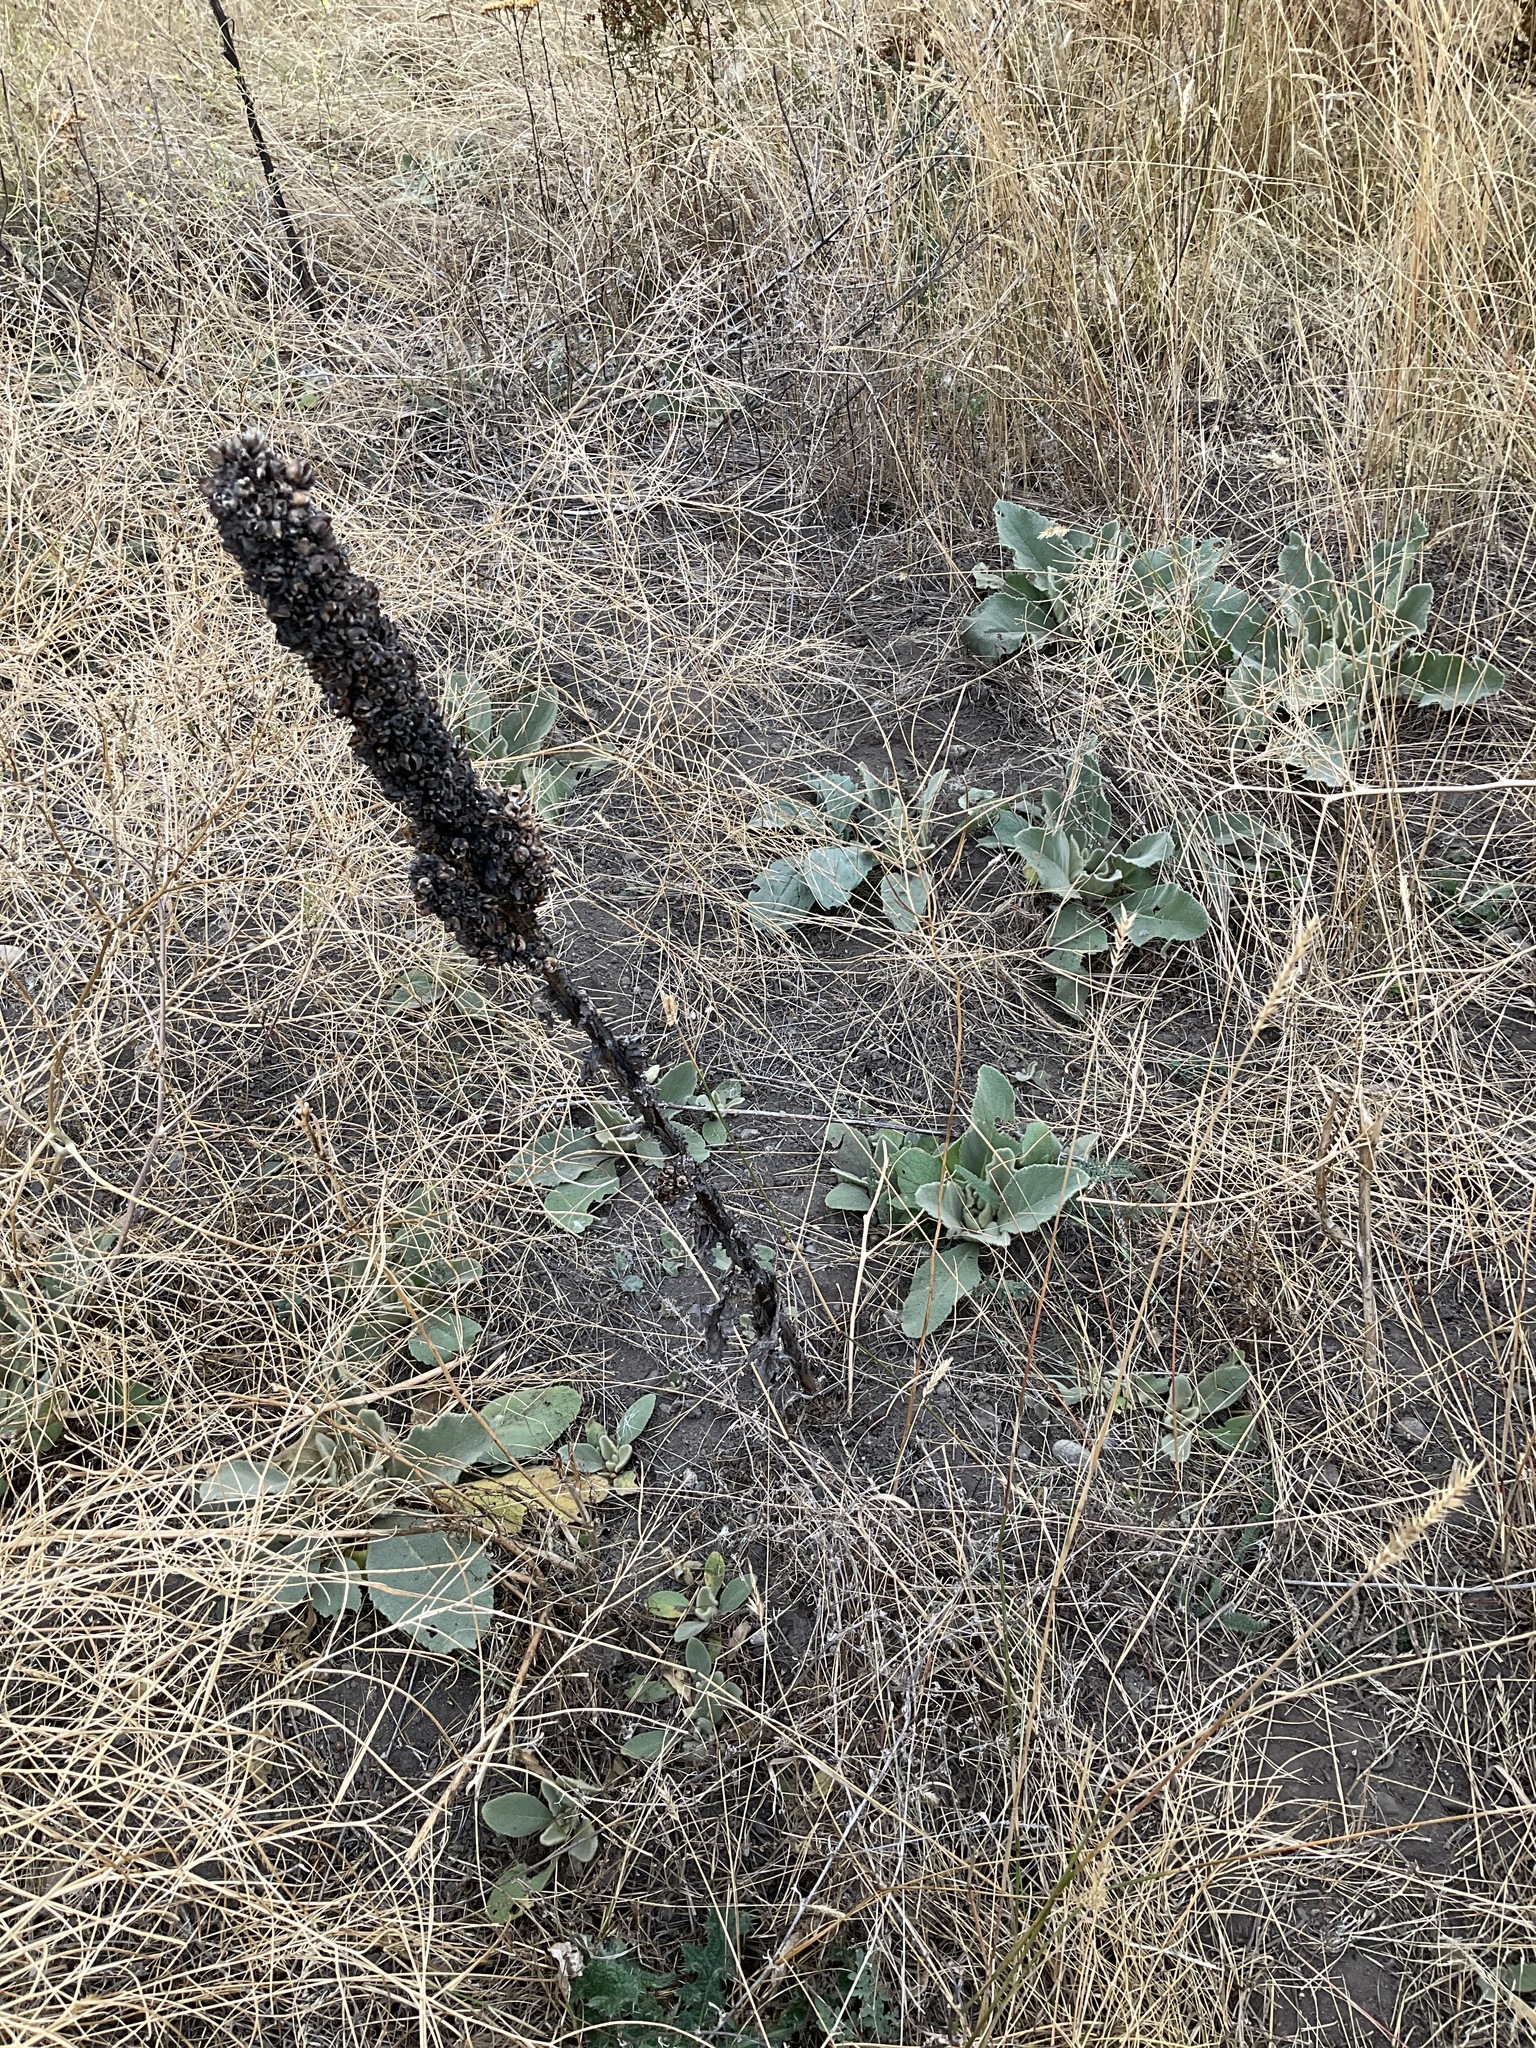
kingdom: Plantae
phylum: Tracheophyta
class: Magnoliopsida
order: Lamiales
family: Scrophulariaceae
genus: Verbascum
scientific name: Verbascum thapsus
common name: Common mullein
